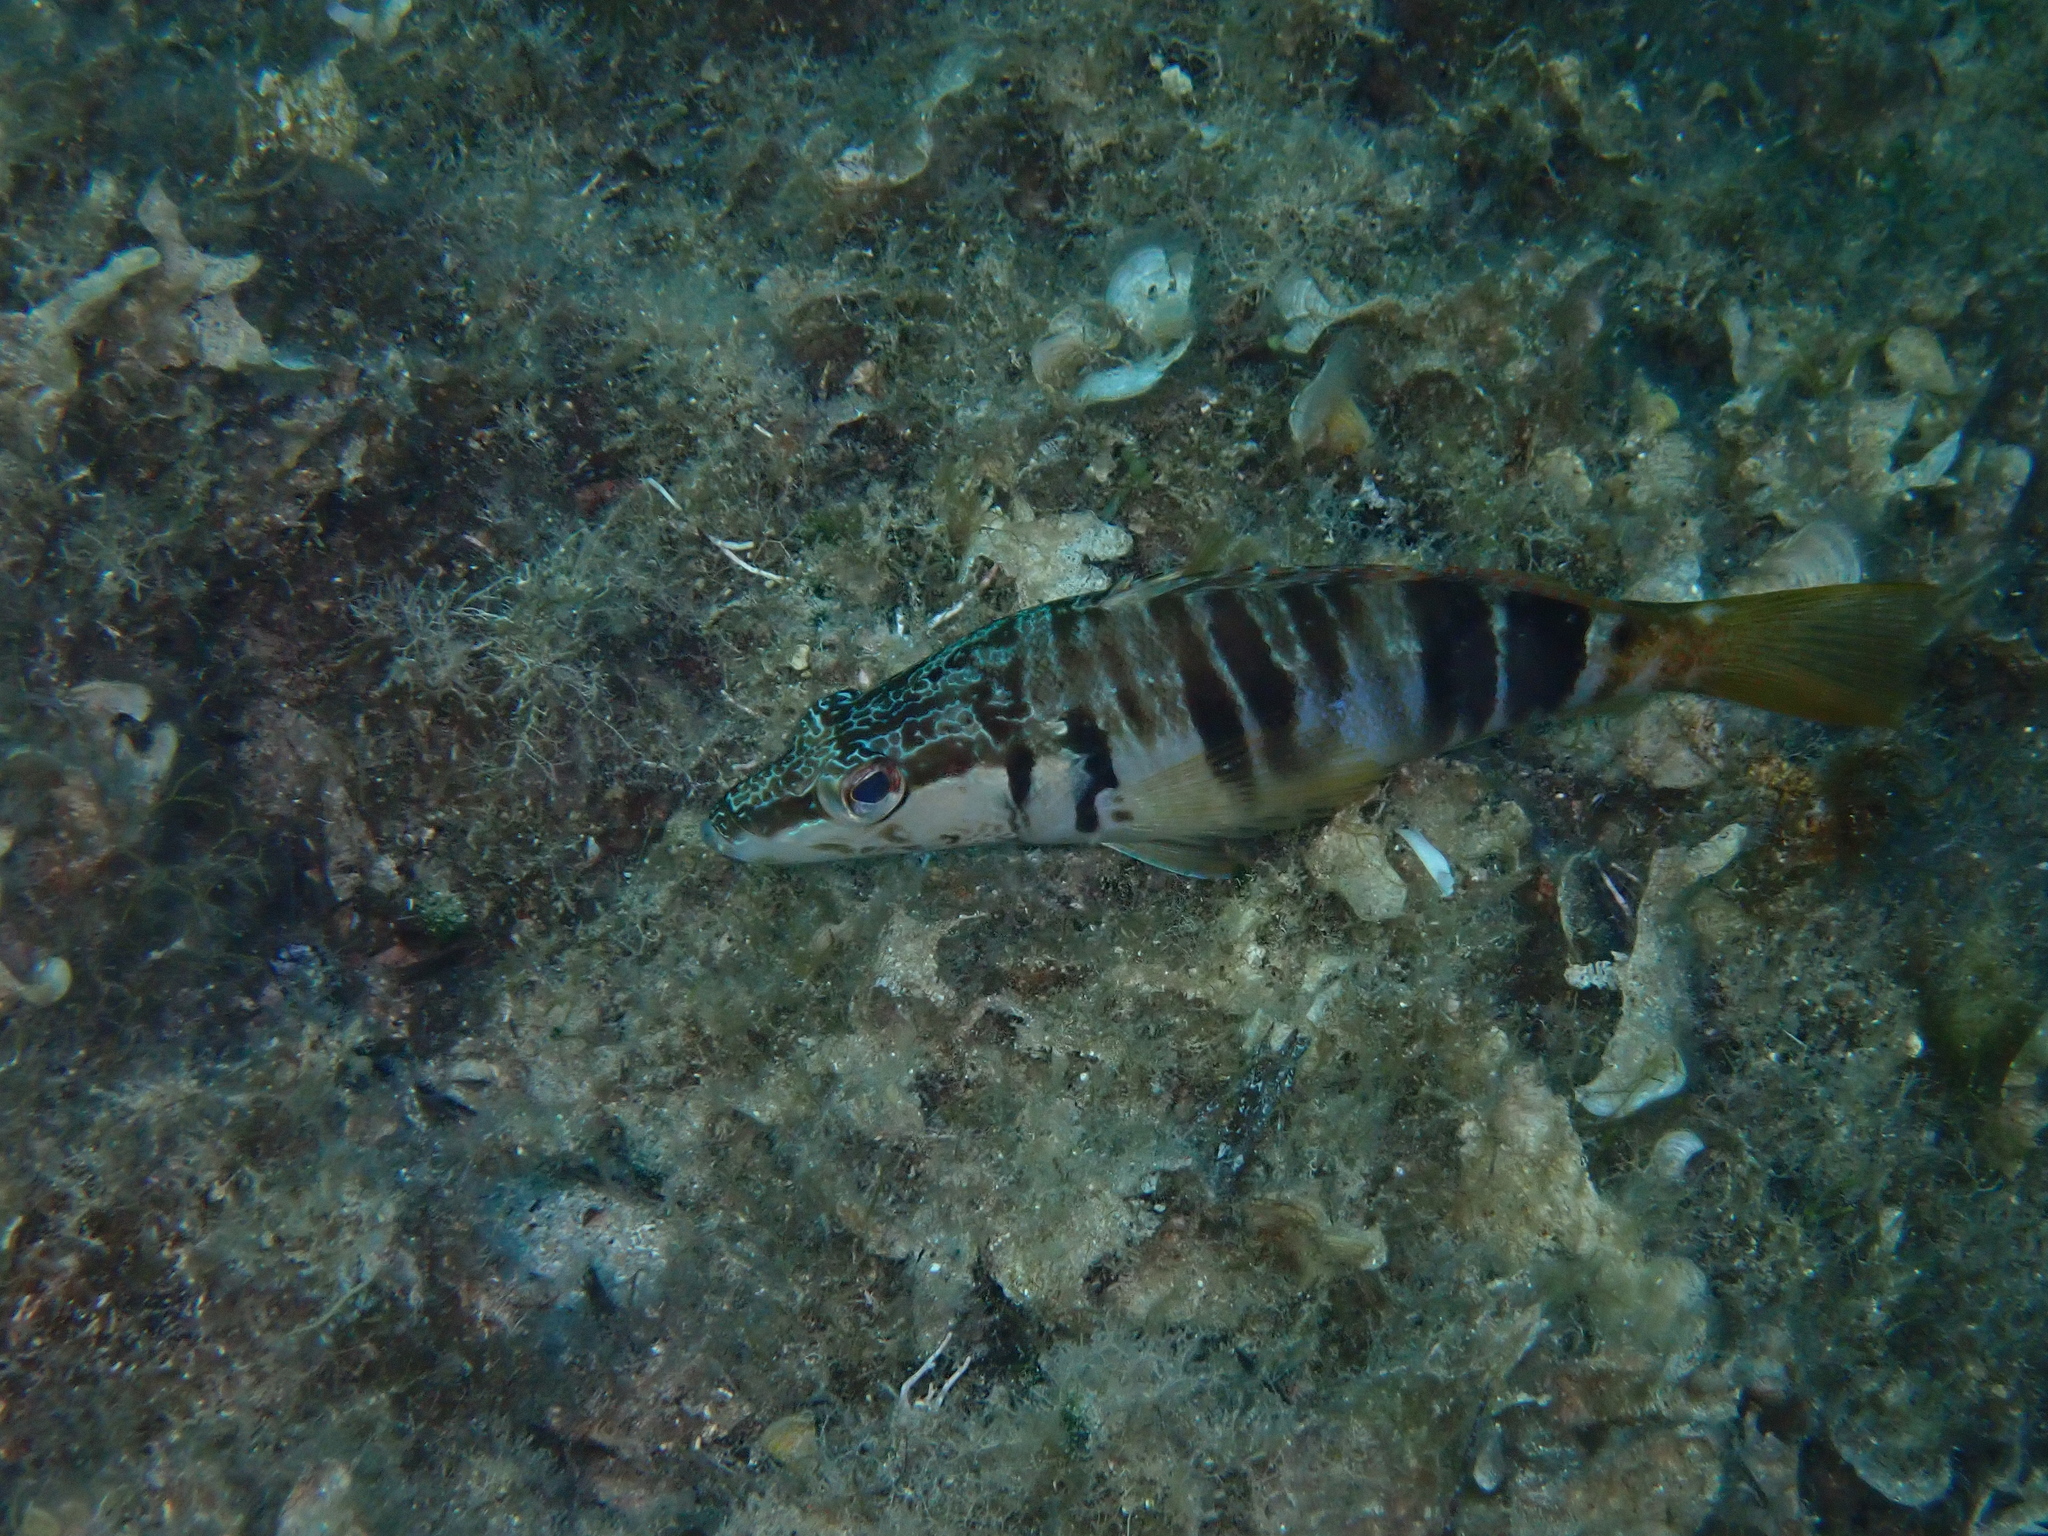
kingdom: Animalia
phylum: Chordata
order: Perciformes
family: Serranidae
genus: Serranus
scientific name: Serranus scriba
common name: Painted comber
